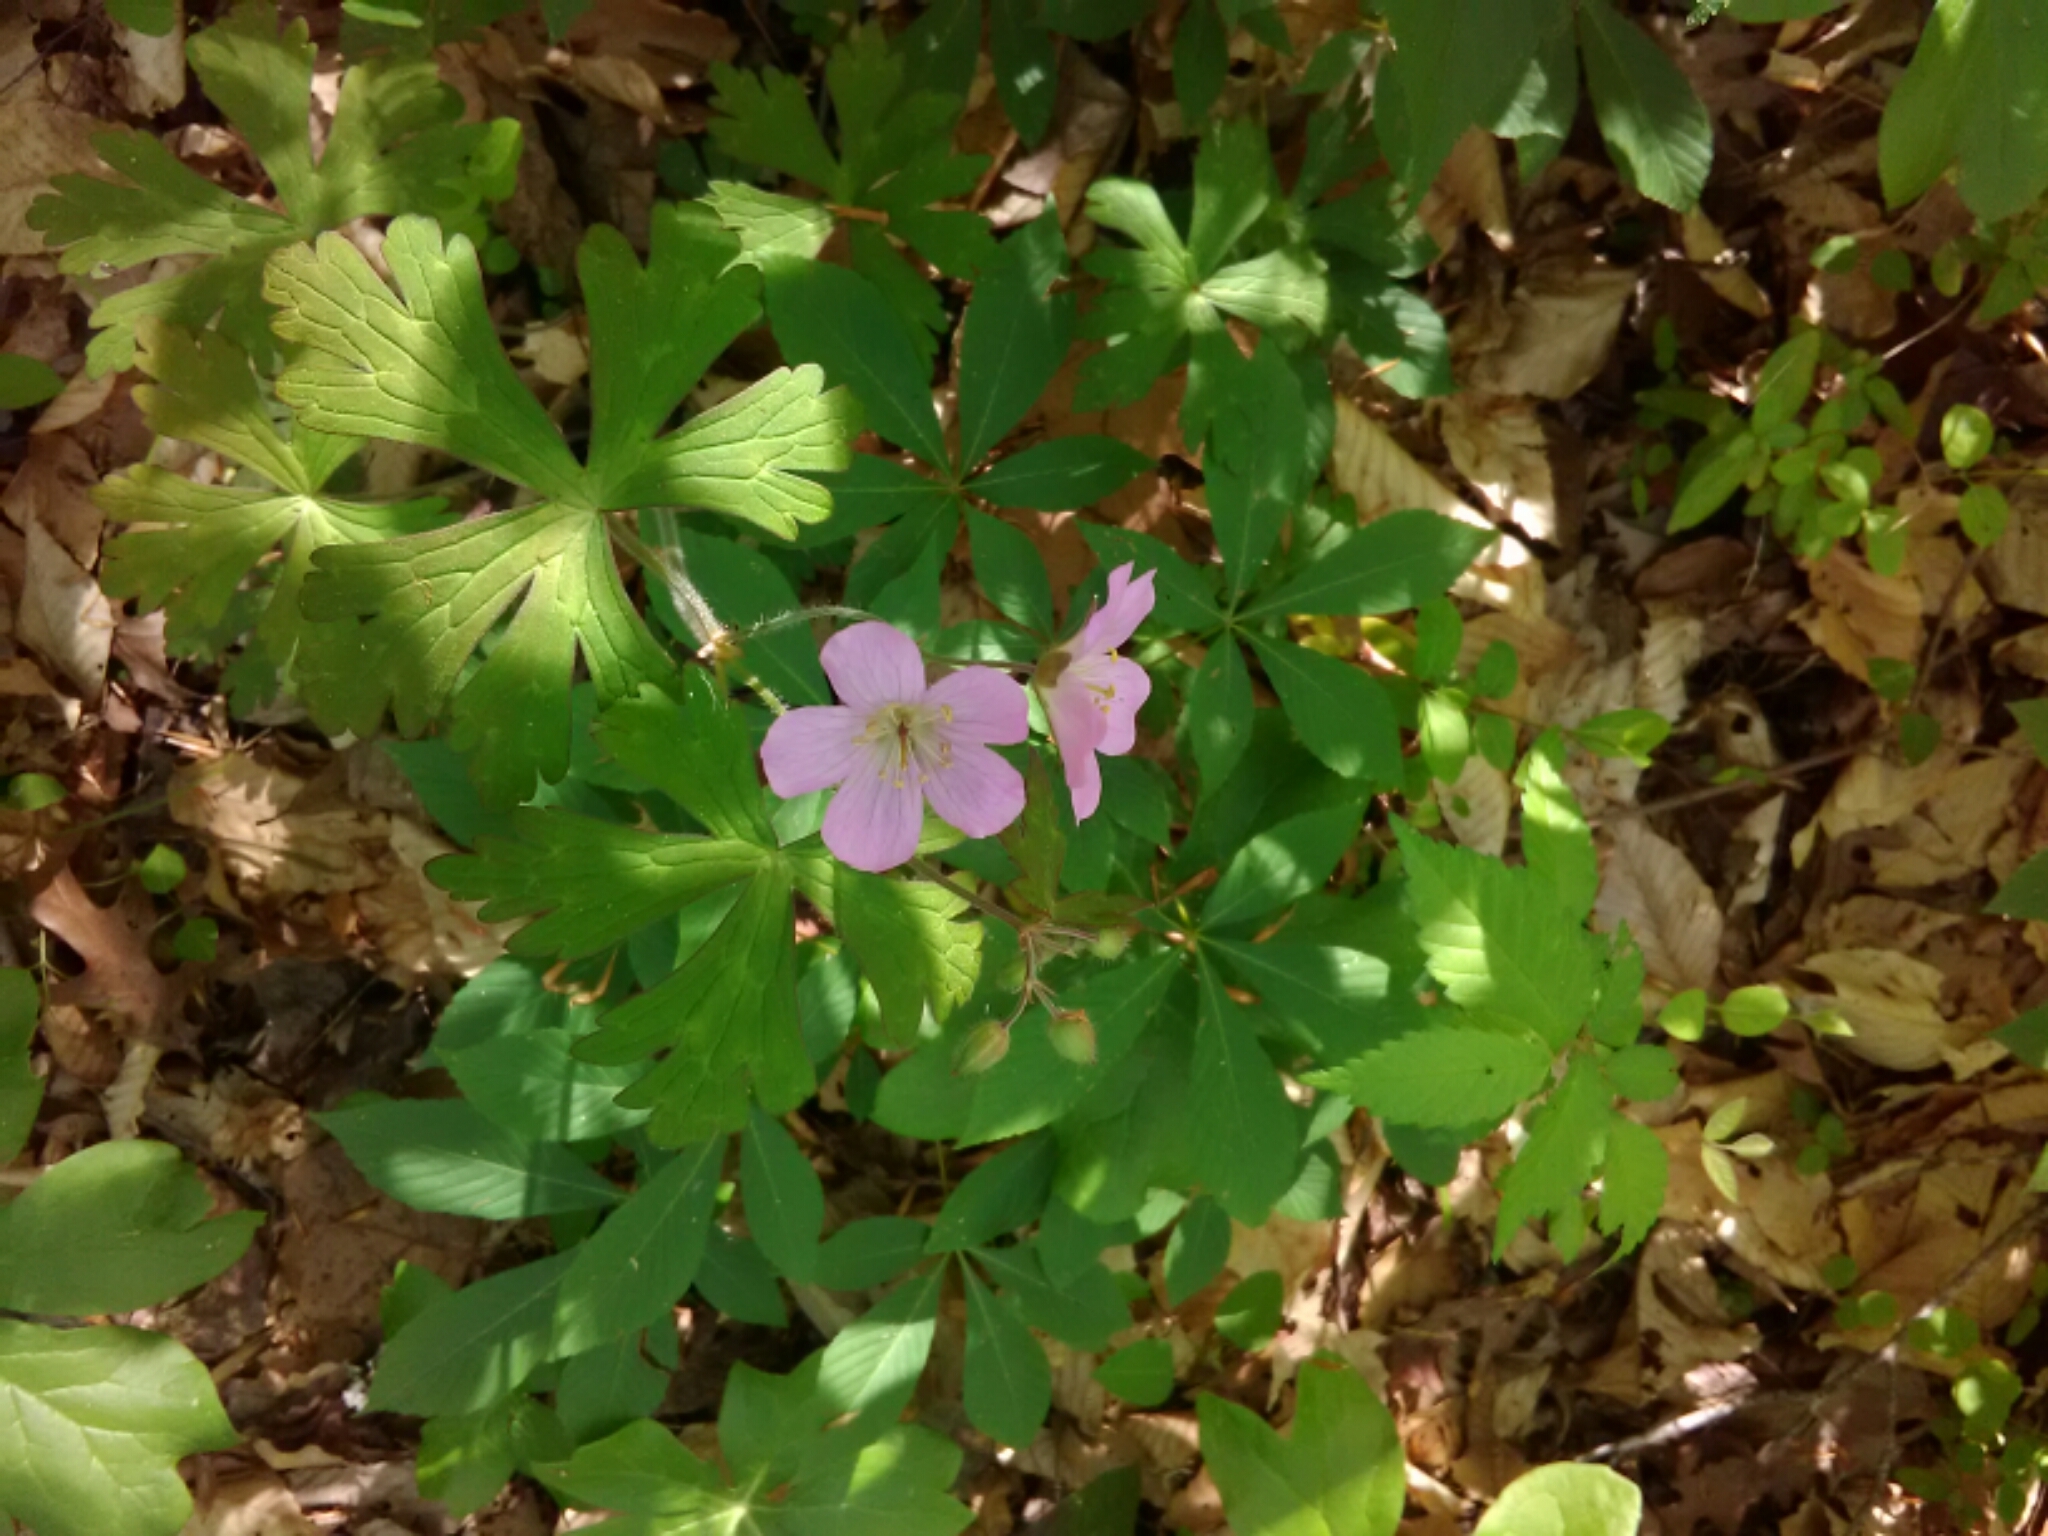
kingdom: Plantae
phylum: Tracheophyta
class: Magnoliopsida
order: Geraniales
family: Geraniaceae
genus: Geranium
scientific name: Geranium maculatum
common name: Spotted geranium
